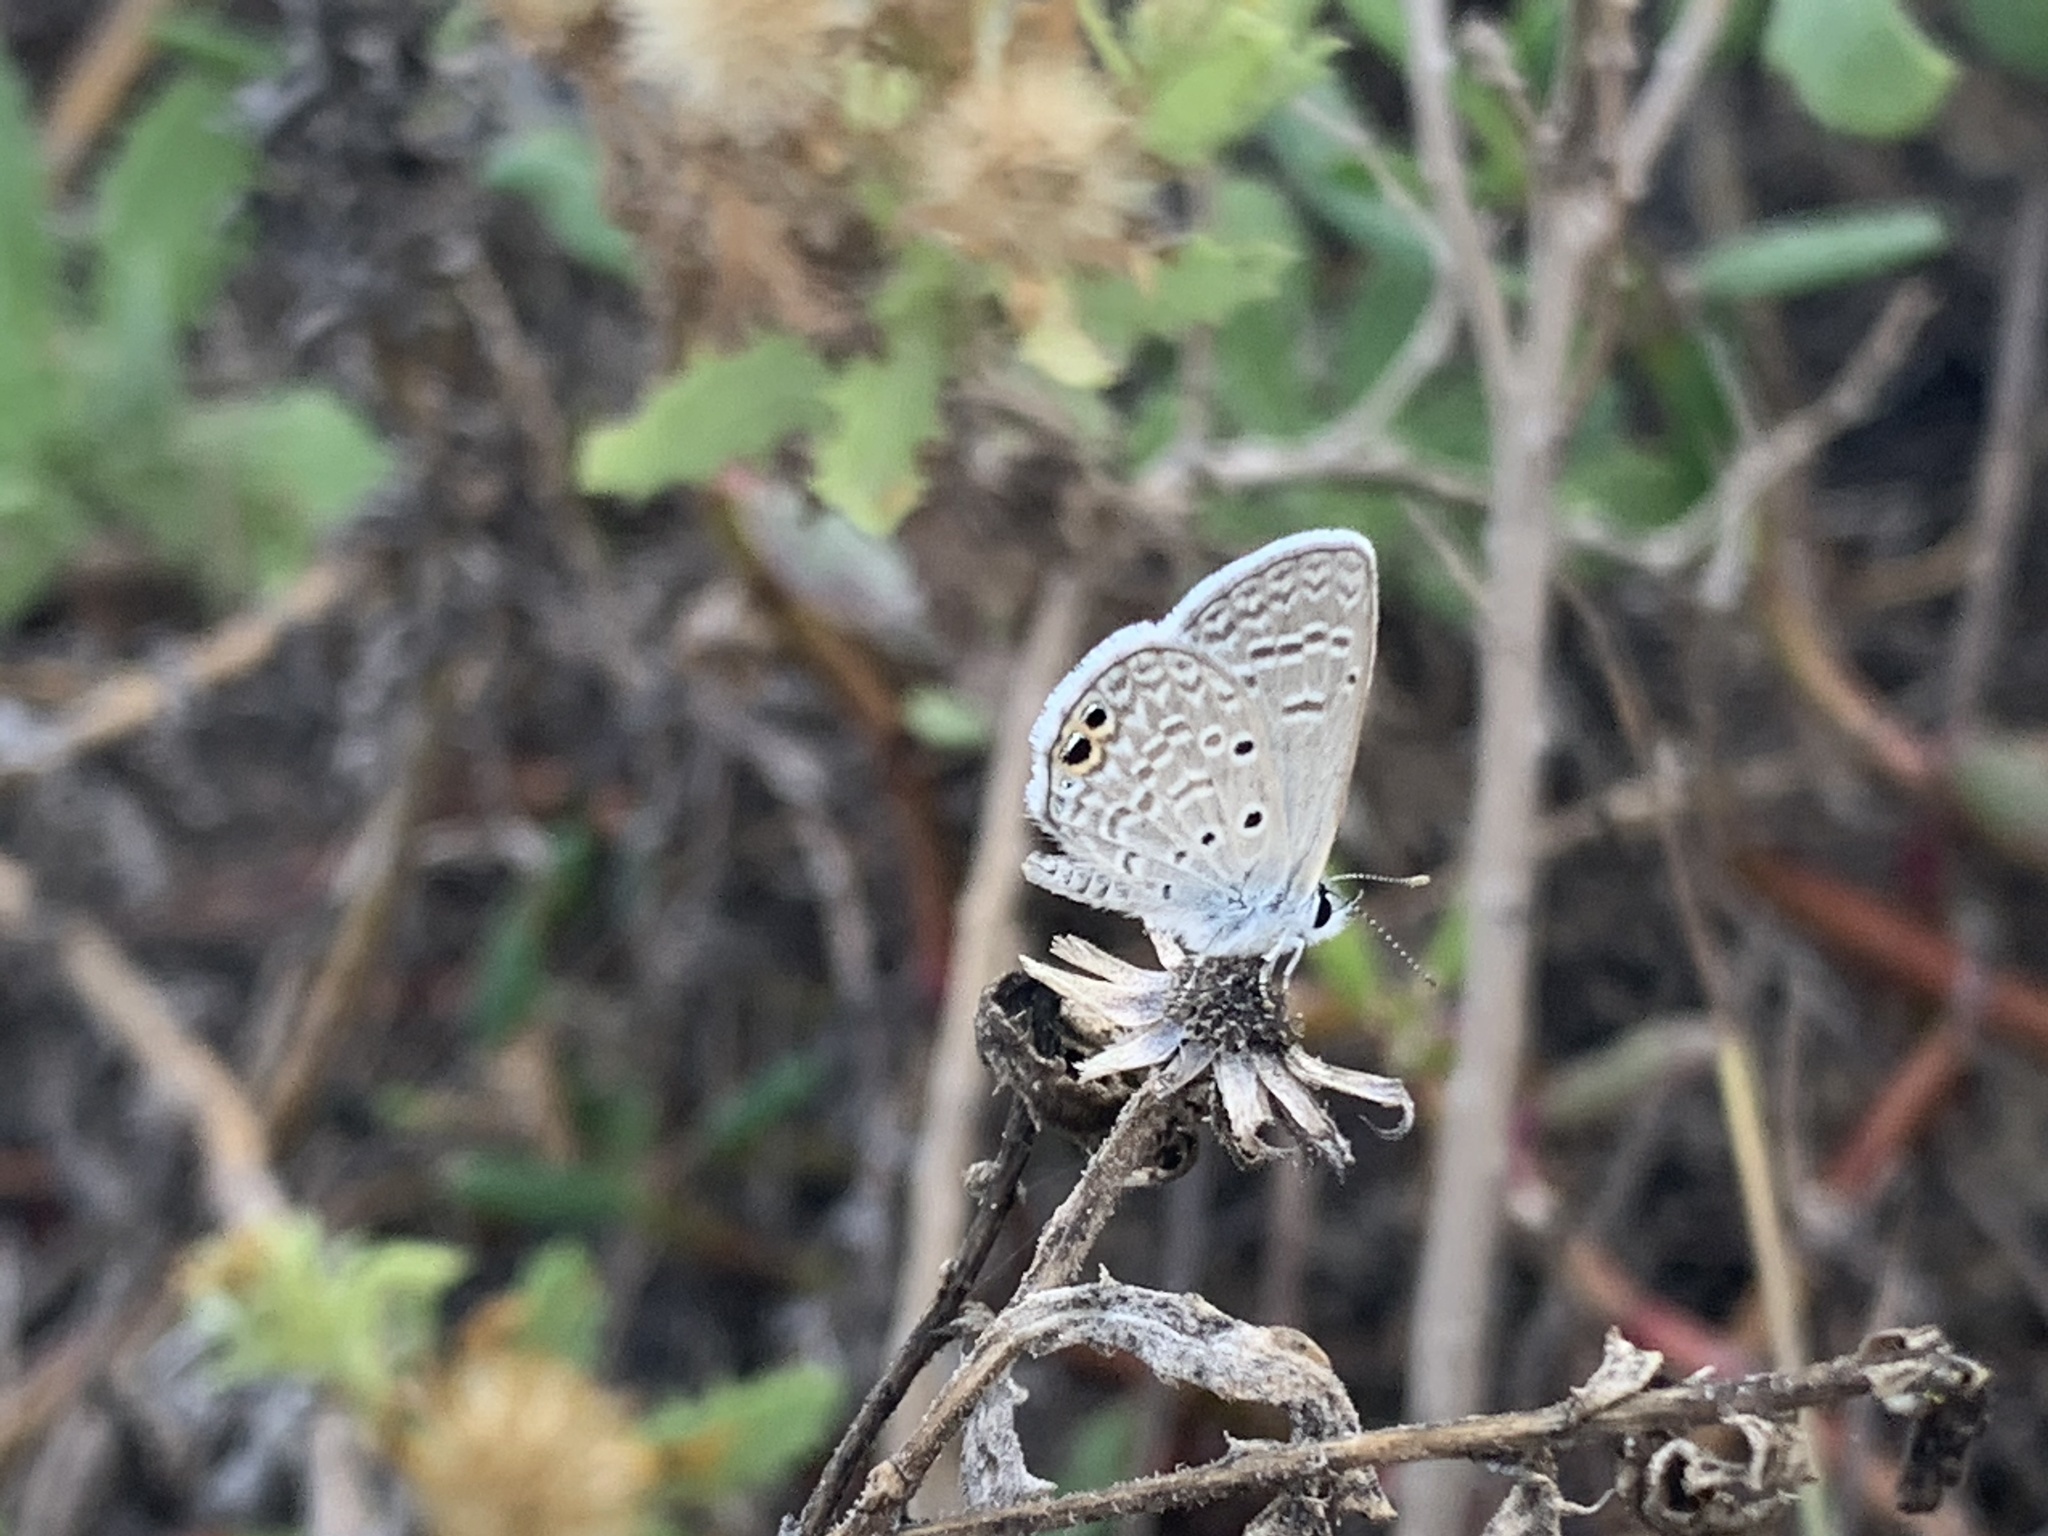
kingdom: Animalia
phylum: Arthropoda
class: Insecta
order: Lepidoptera
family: Lycaenidae
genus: Hemiargus
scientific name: Hemiargus ceraunus
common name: Ceraunus blue
